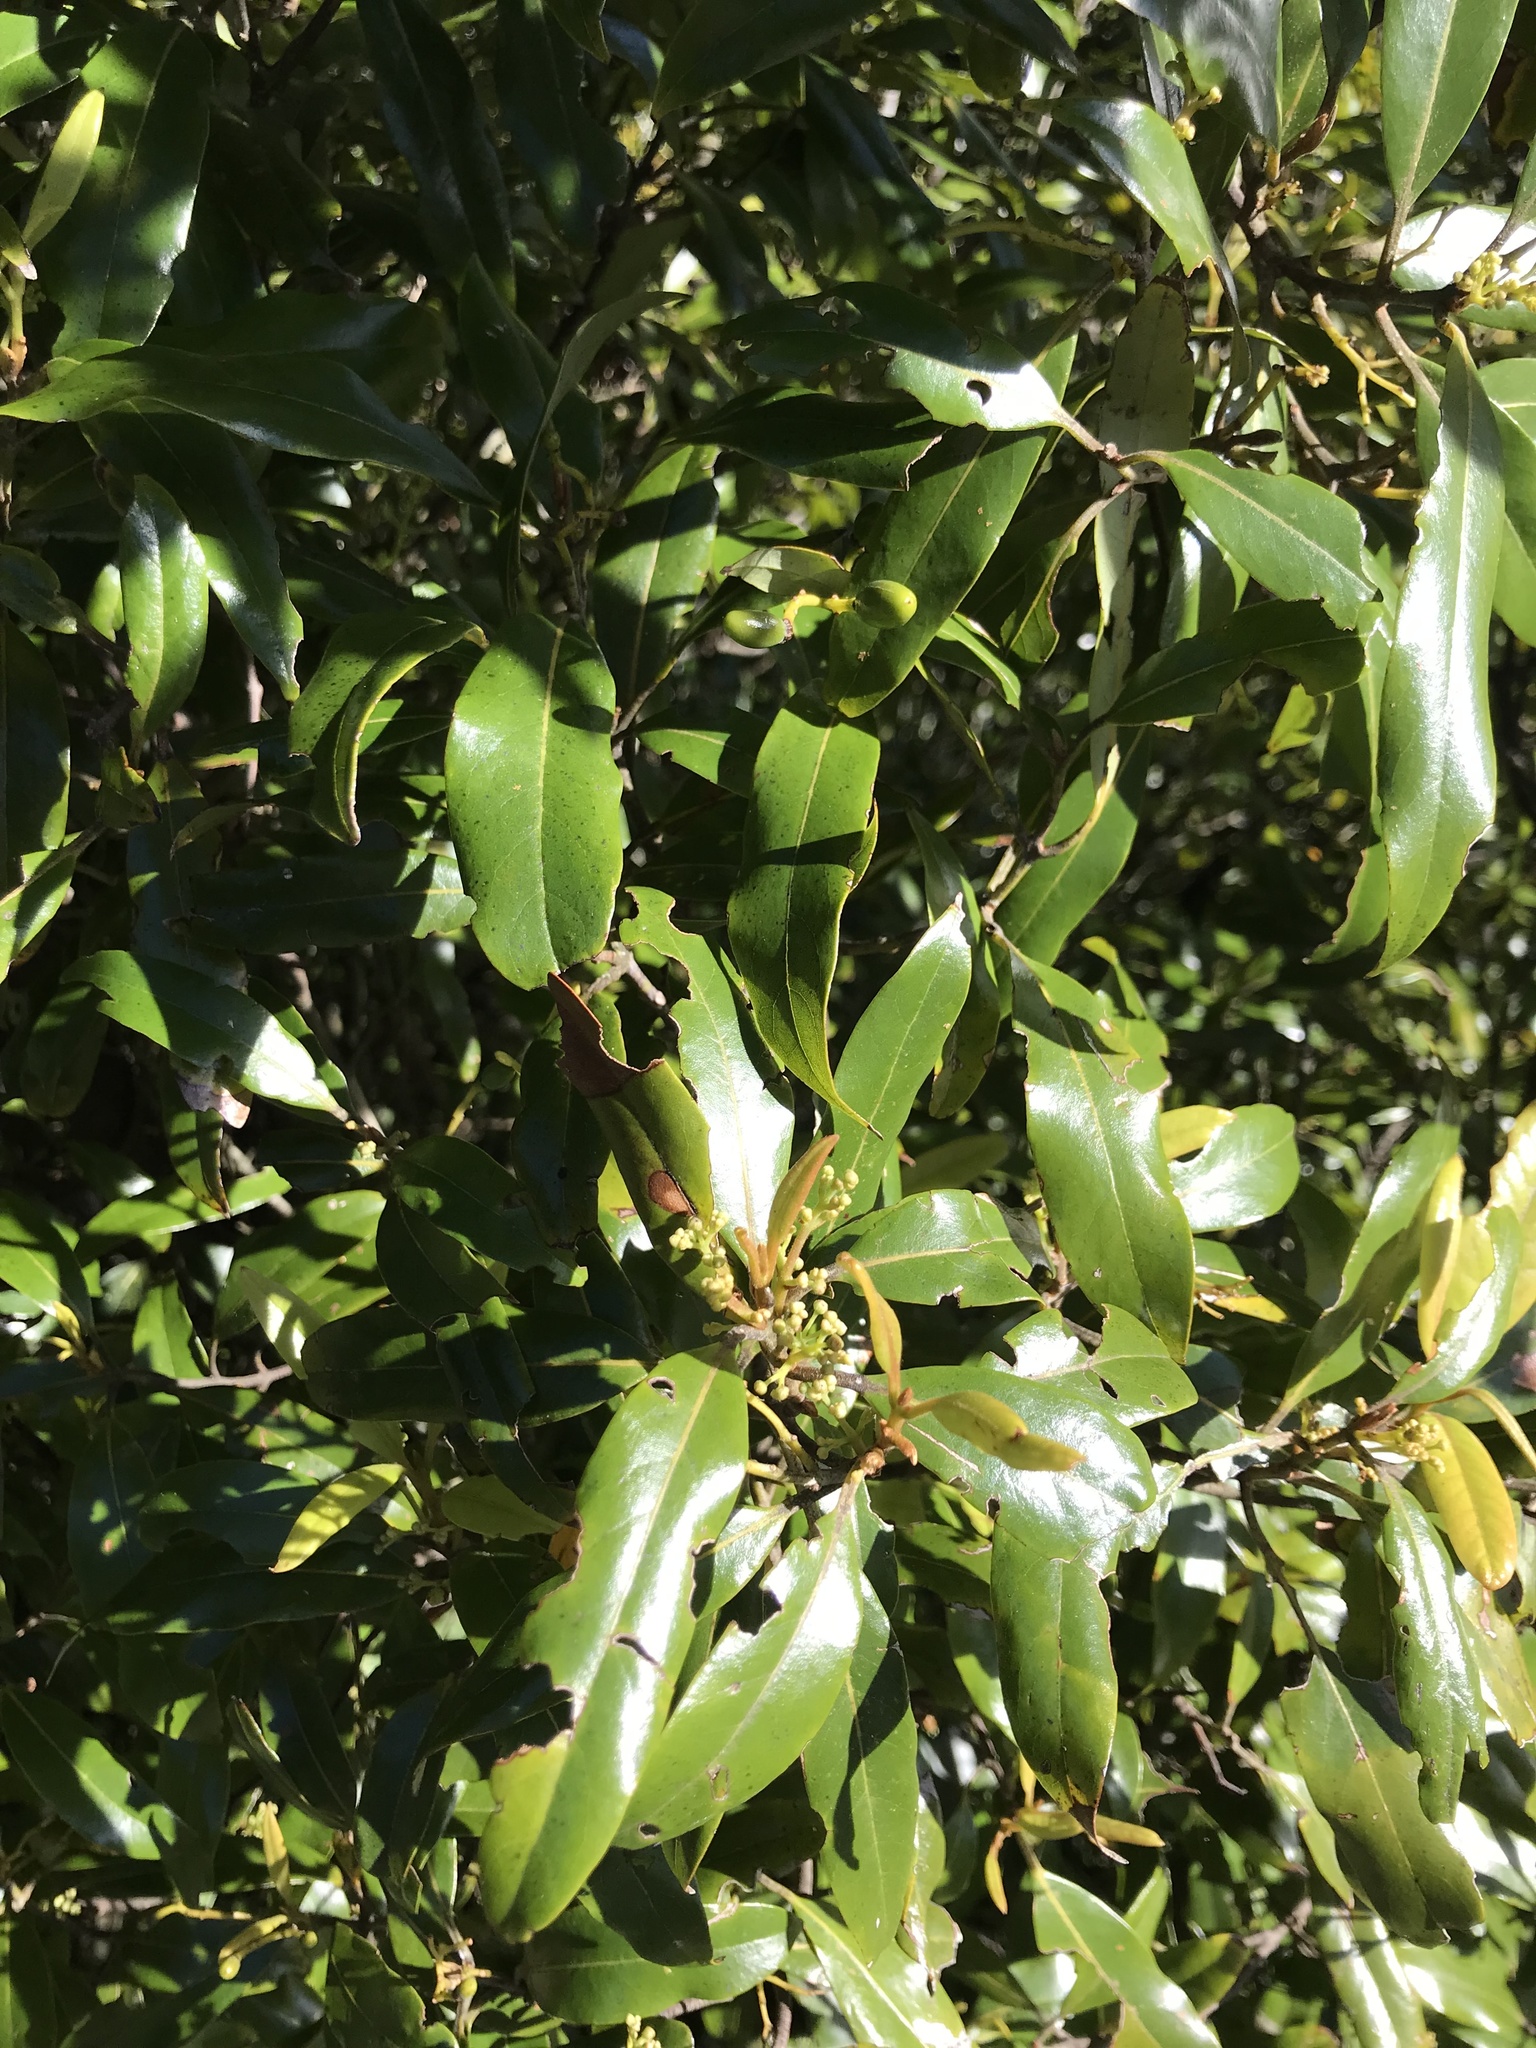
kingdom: Plantae
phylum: Tracheophyta
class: Magnoliopsida
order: Laurales
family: Lauraceae
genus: Beilschmiedia
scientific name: Beilschmiedia tawa
